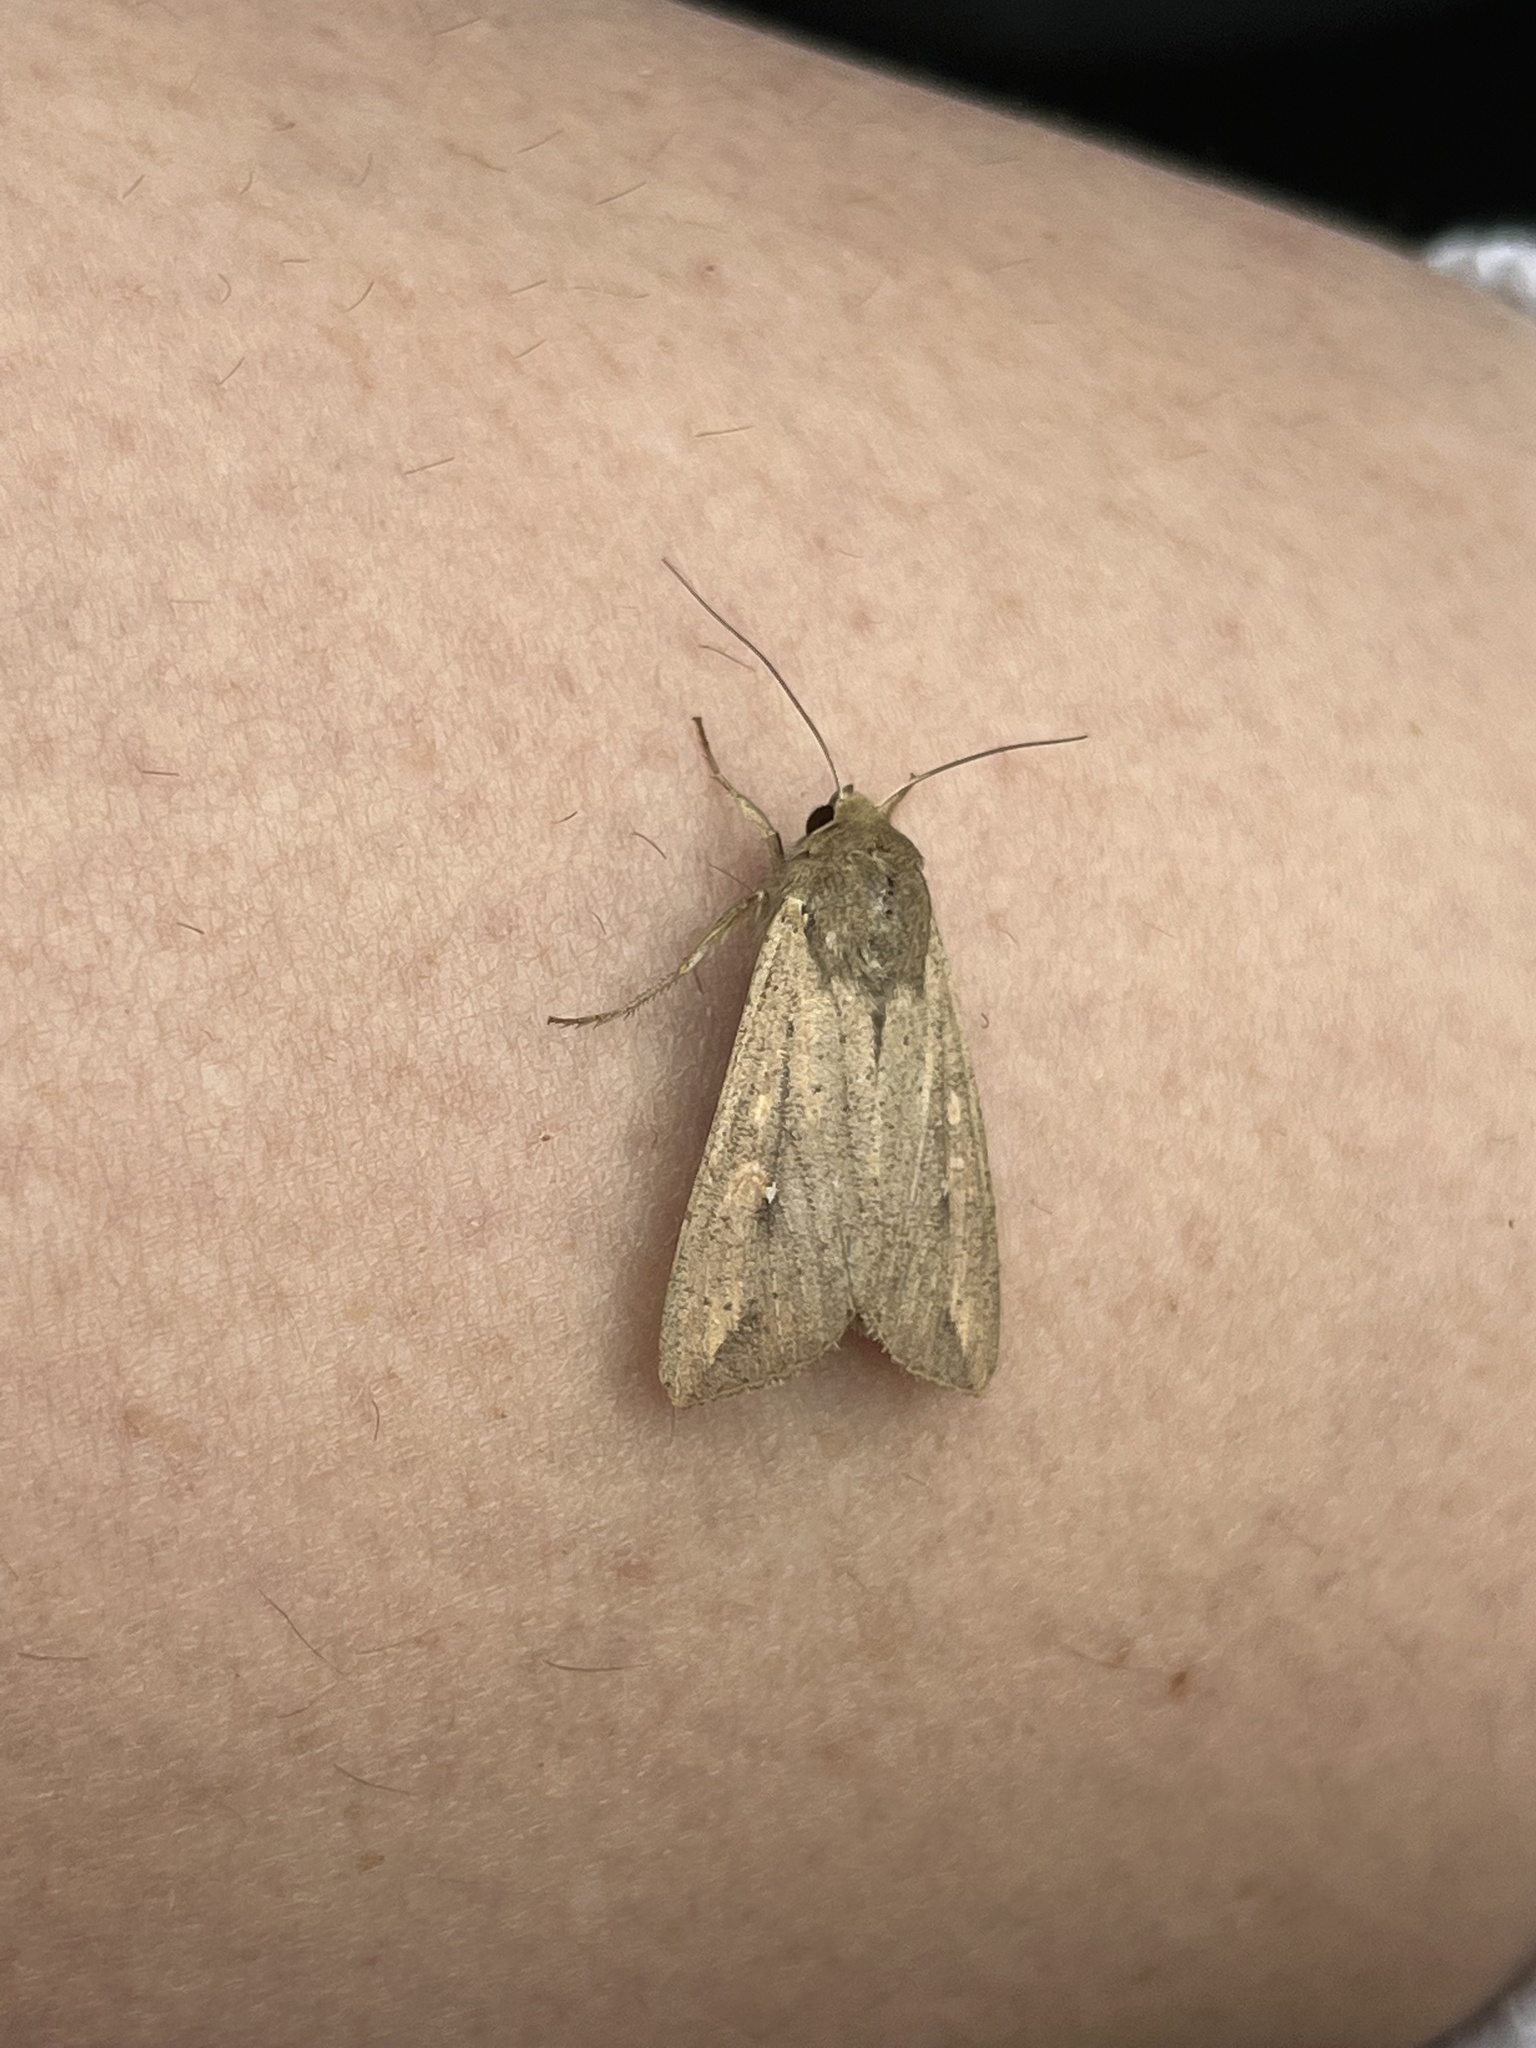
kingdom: Animalia
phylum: Arthropoda
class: Insecta
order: Lepidoptera
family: Noctuidae
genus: Mythimna
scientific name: Mythimna unipuncta
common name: White-speck
